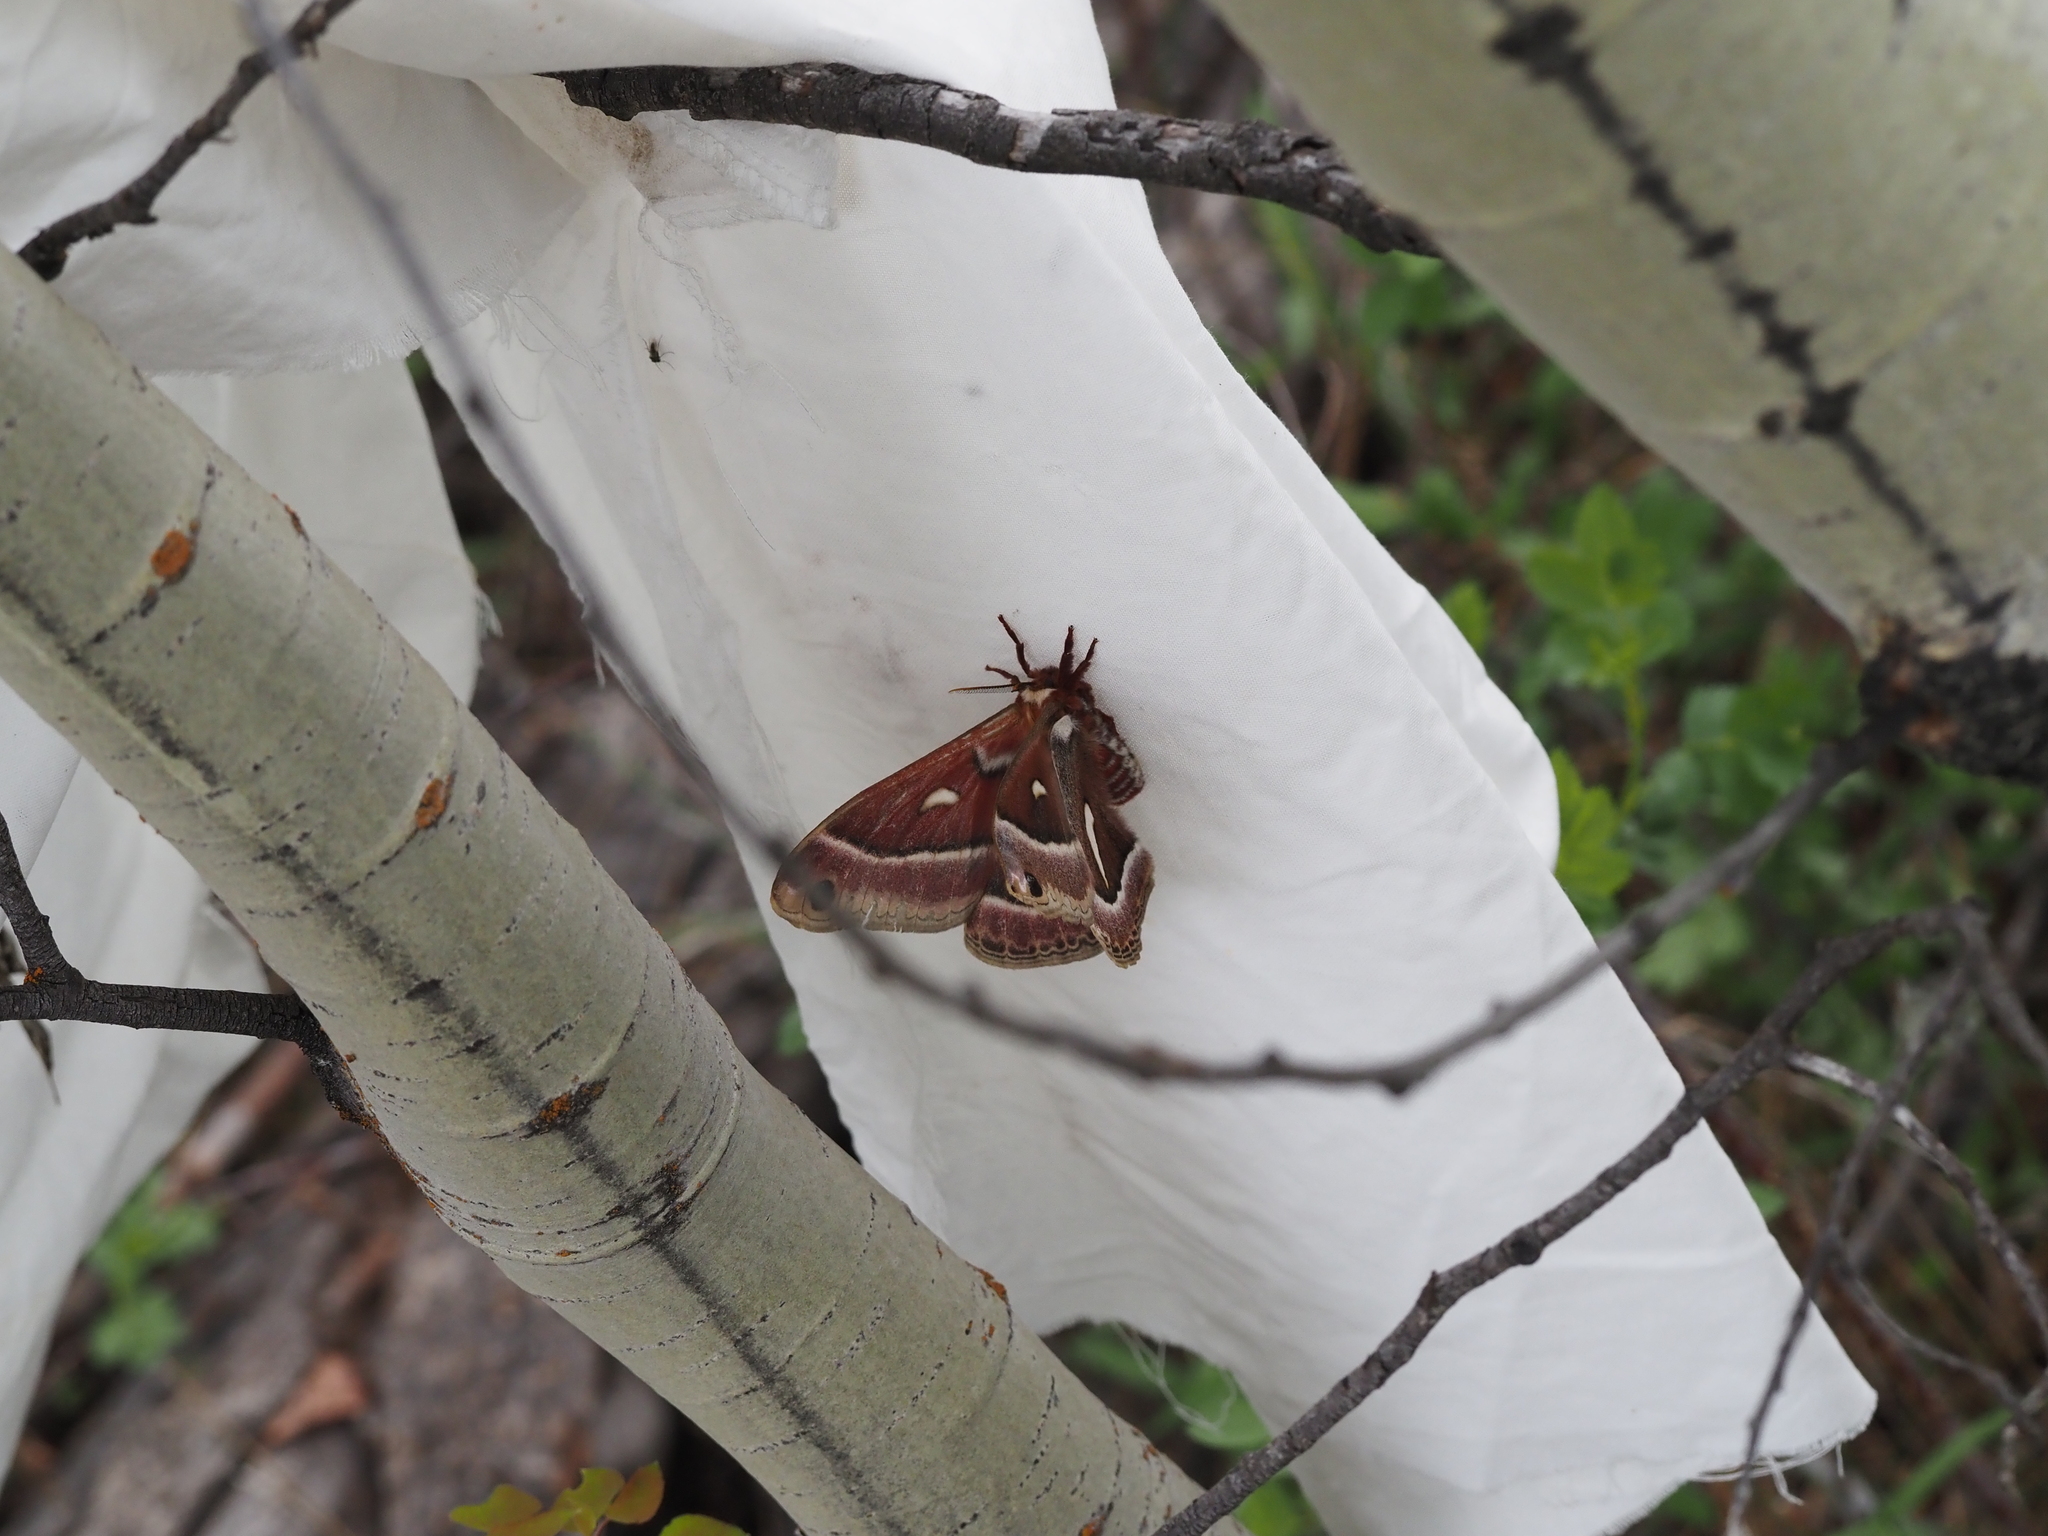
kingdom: Animalia
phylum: Arthropoda
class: Insecta
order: Lepidoptera
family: Saturniidae
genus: Hyalophora
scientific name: Hyalophora euryalus
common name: Ceanothus silkmoth
